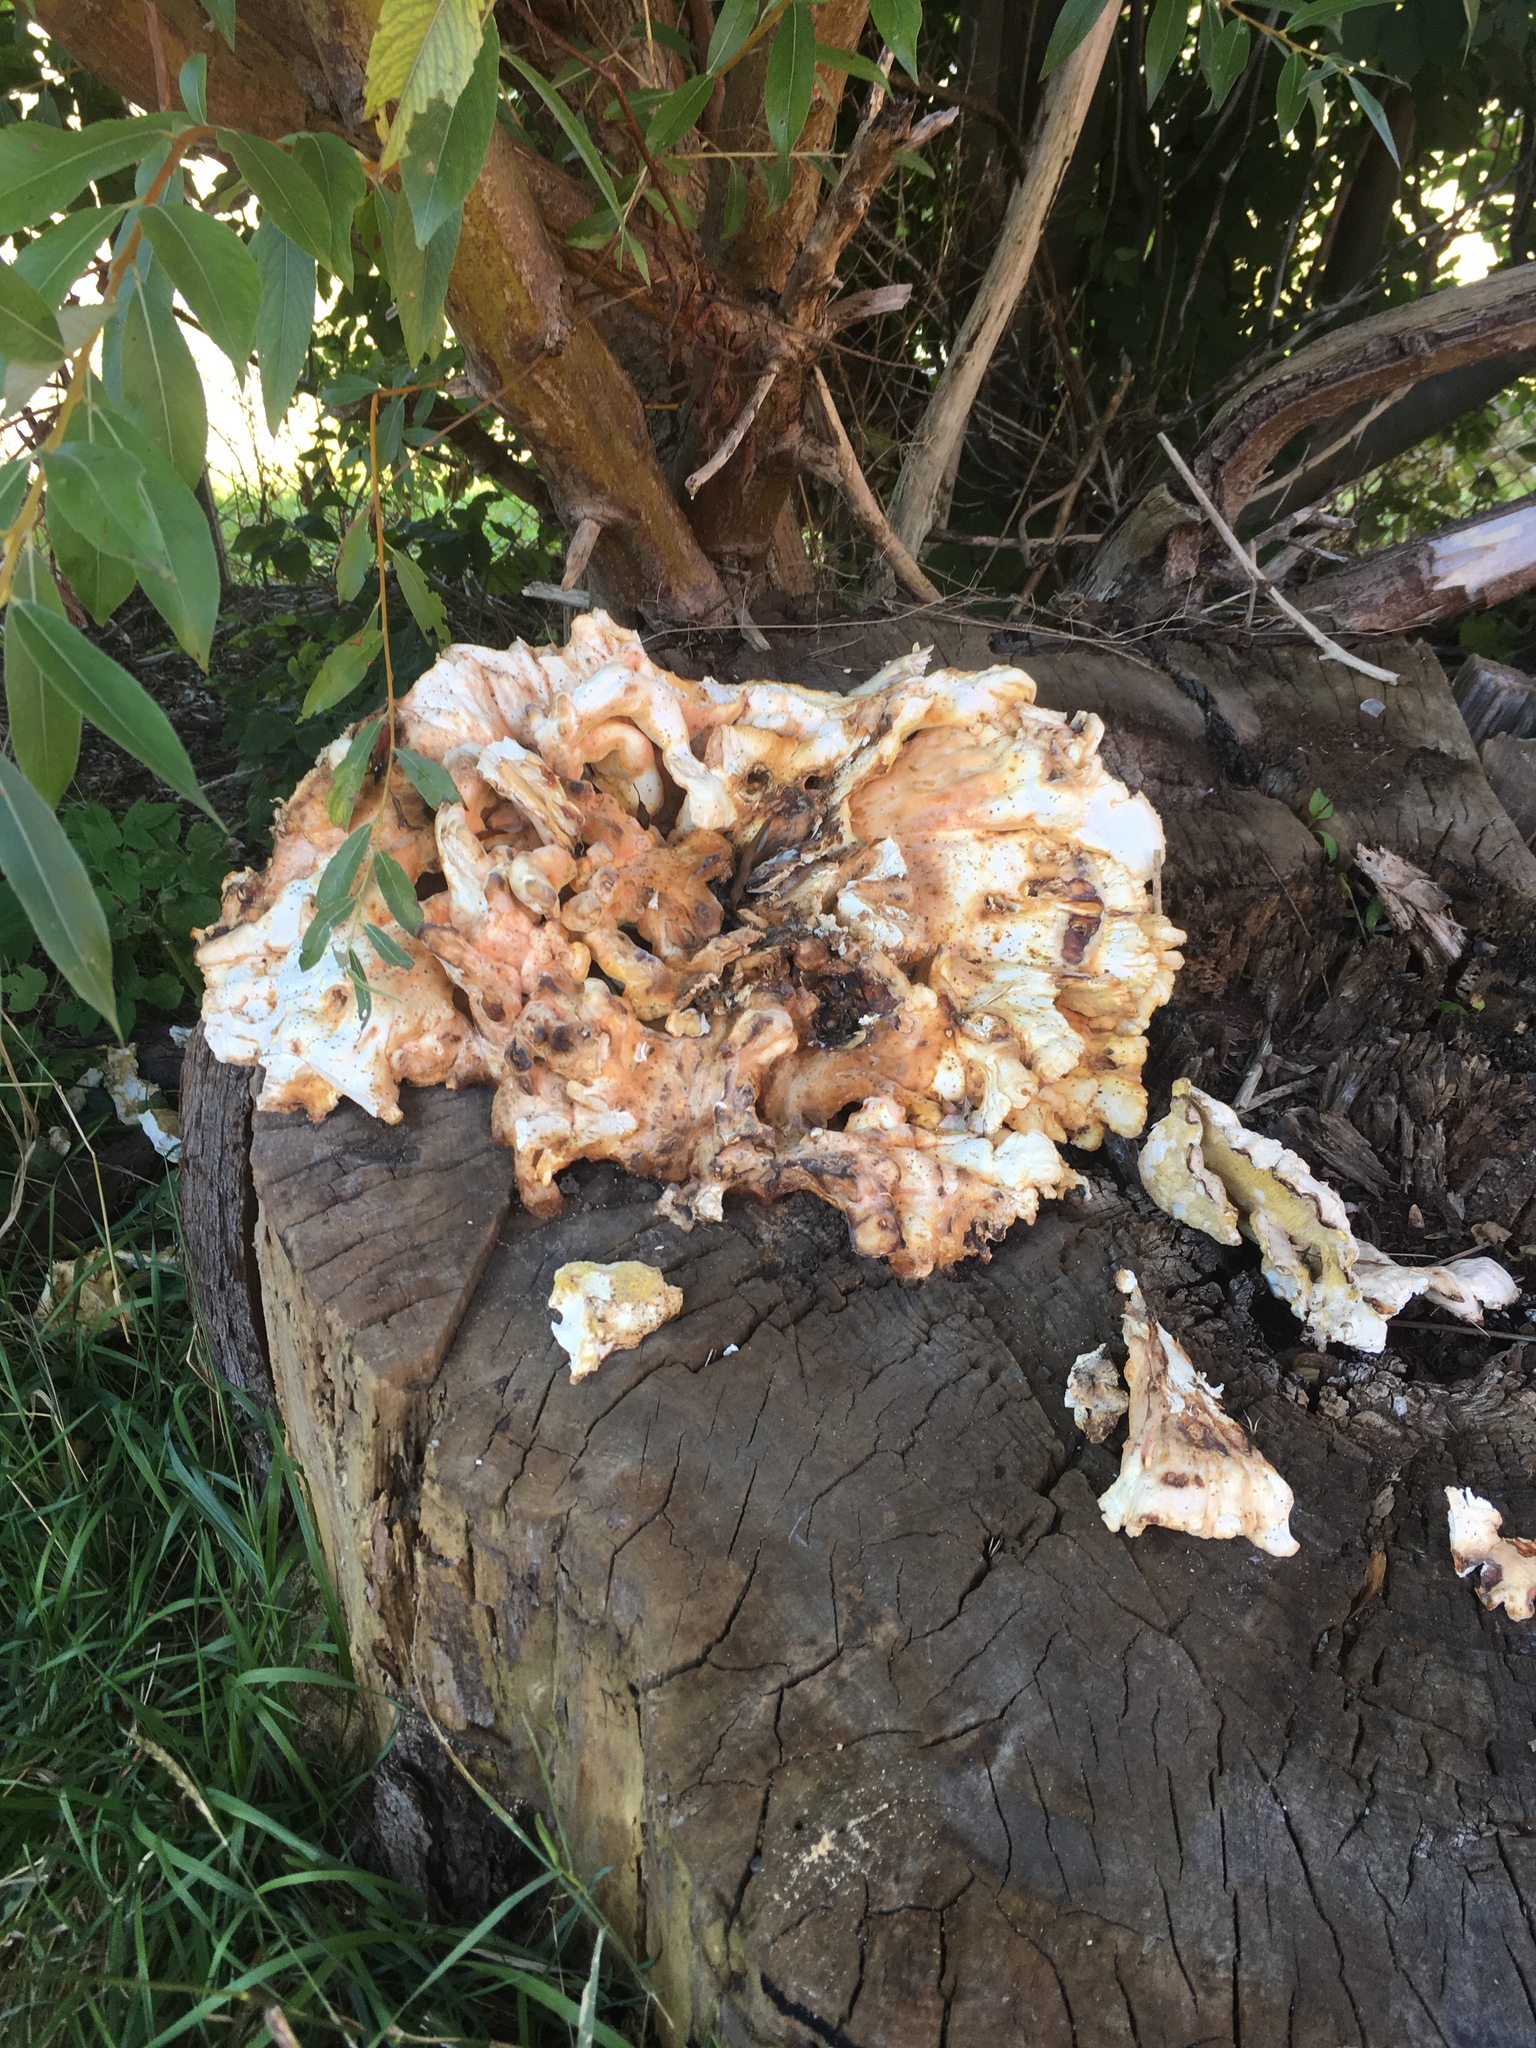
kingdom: Fungi
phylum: Basidiomycota
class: Agaricomycetes
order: Polyporales
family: Laetiporaceae
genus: Laetiporus
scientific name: Laetiporus sulphureus
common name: Chicken of the woods
